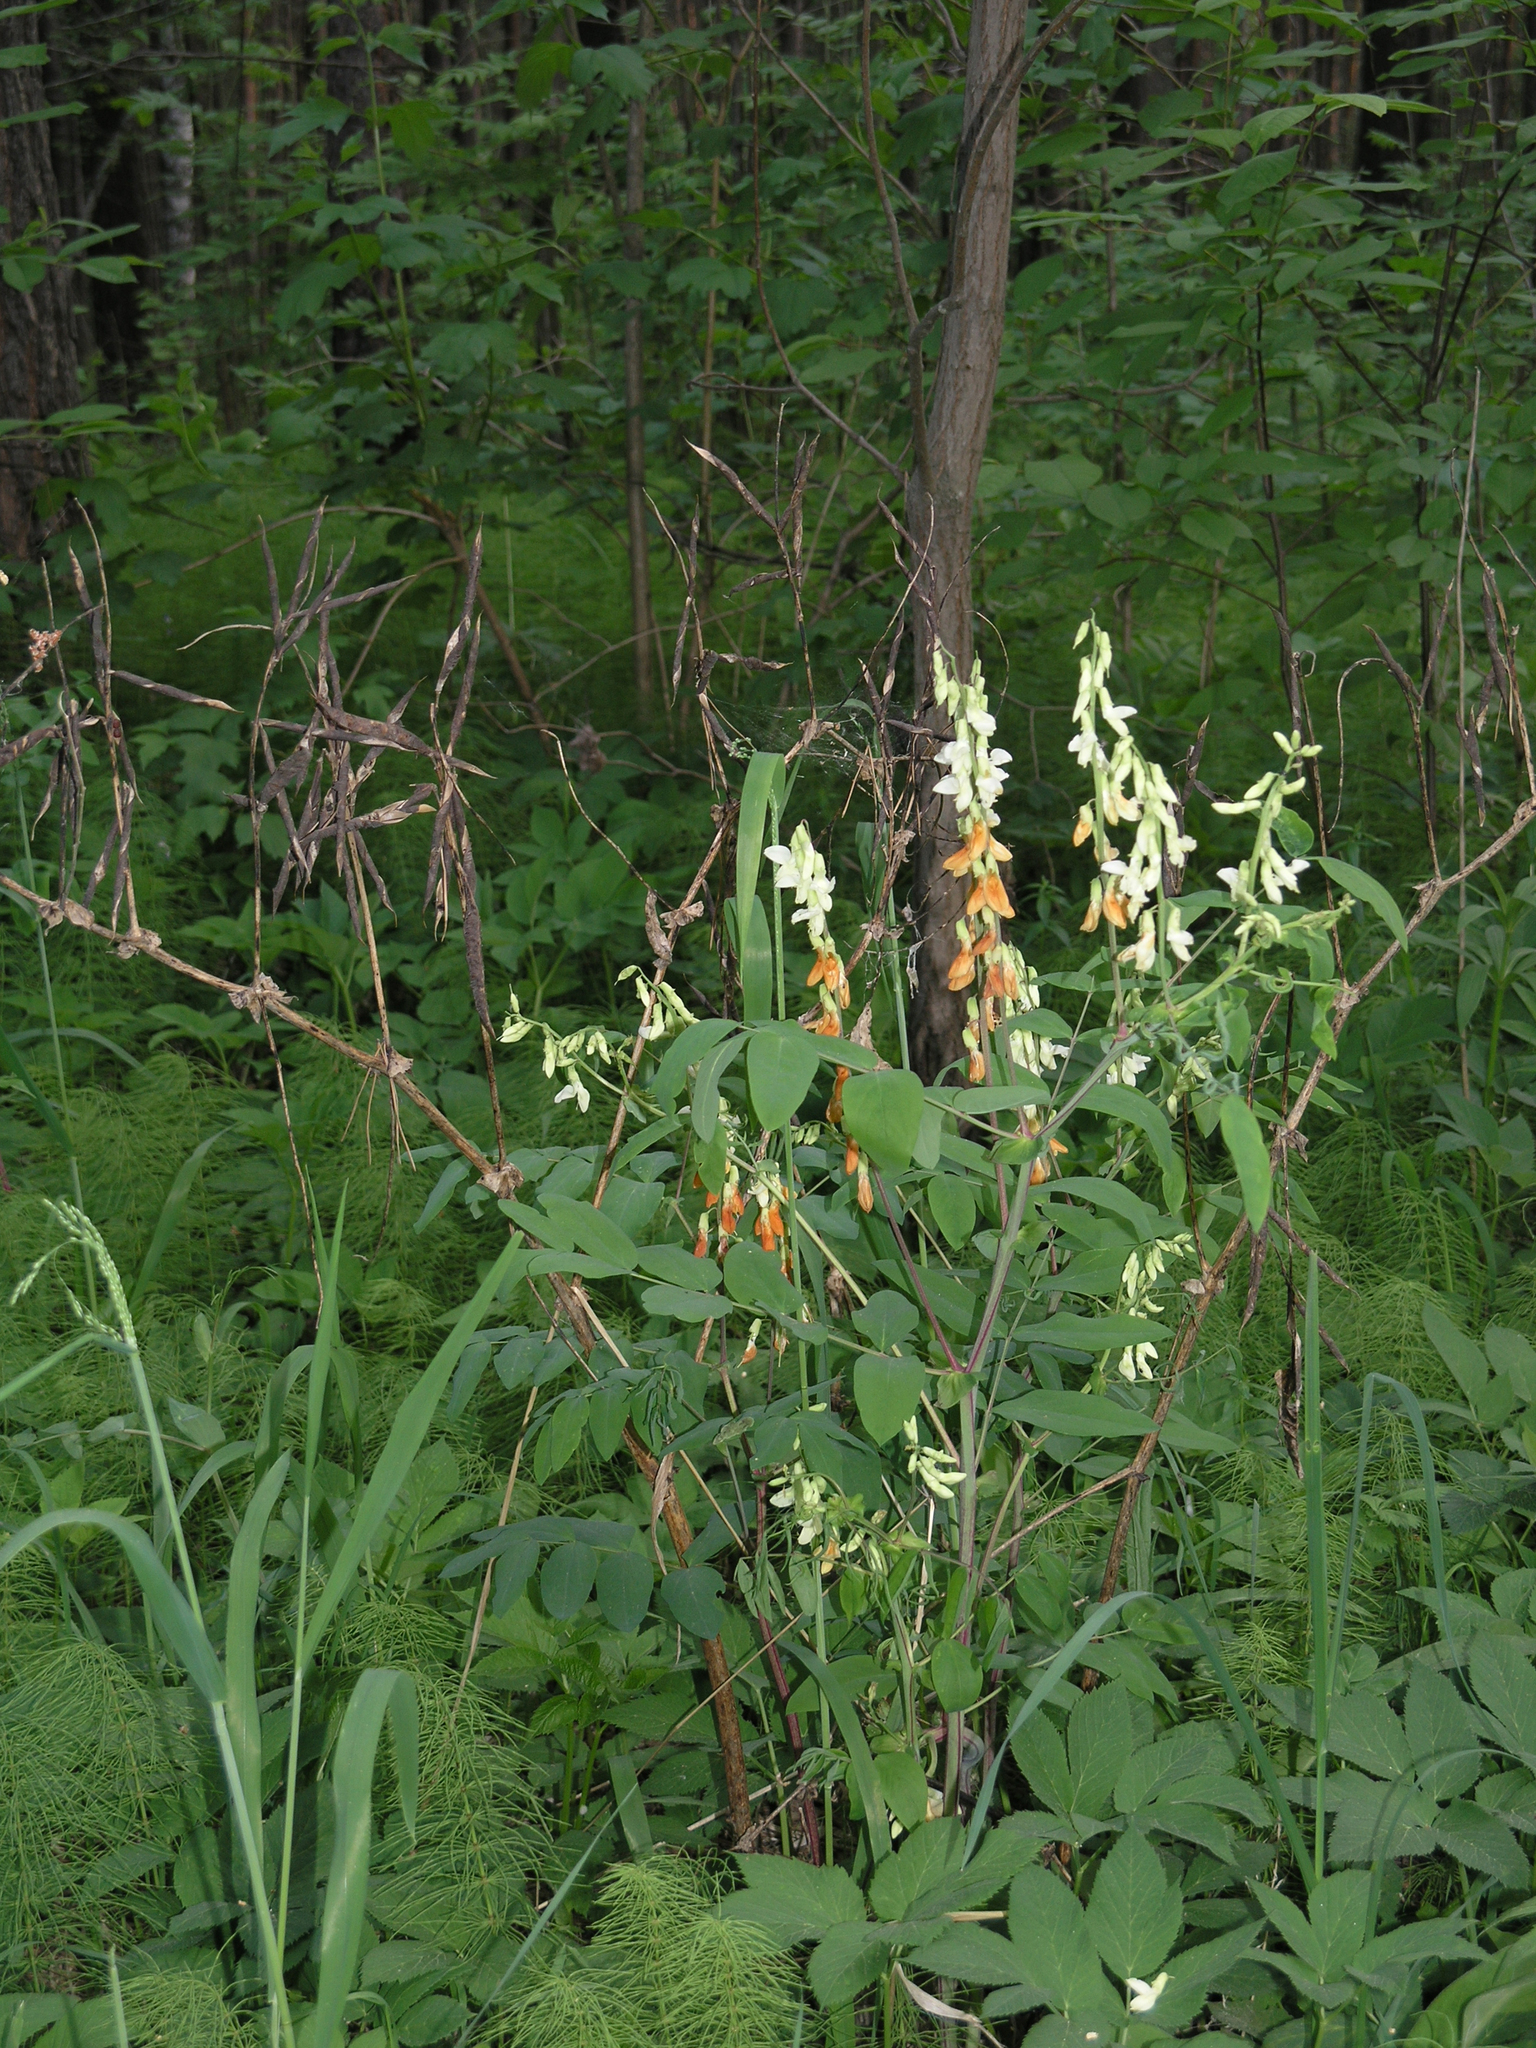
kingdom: Plantae
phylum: Tracheophyta
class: Magnoliopsida
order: Fabales
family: Fabaceae
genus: Lathyrus
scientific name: Lathyrus gmelinii
